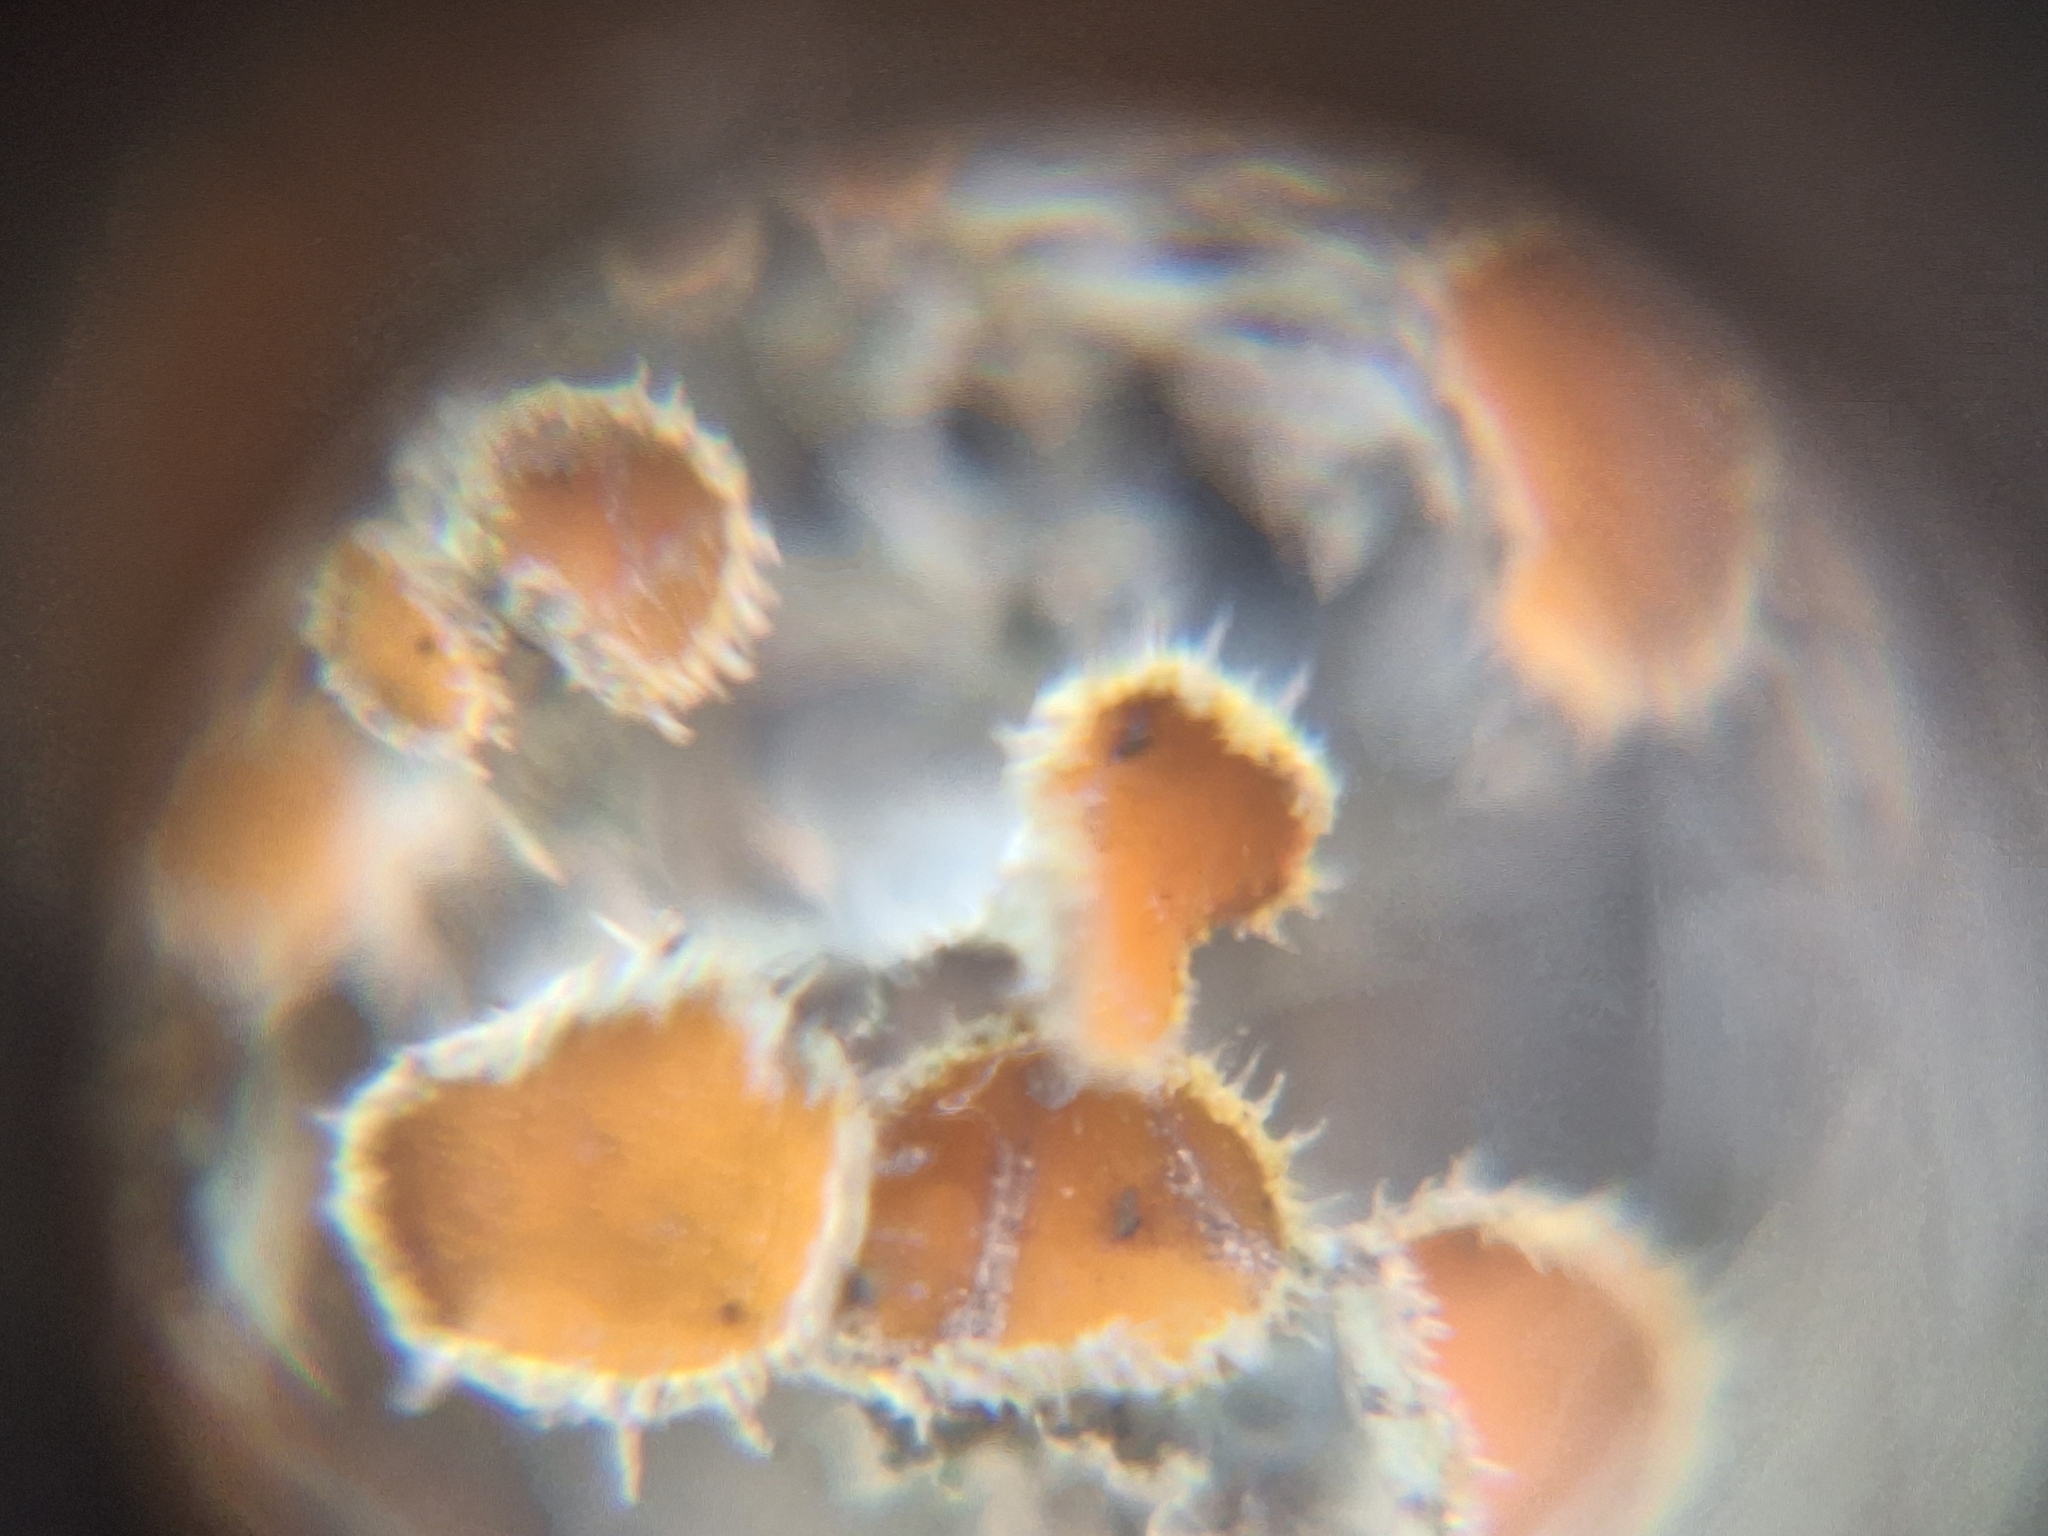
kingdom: Fungi
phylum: Ascomycota
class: Lecanoromycetes
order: Teloschistales
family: Teloschistaceae
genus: Niorma
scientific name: Niorma chrysophthalma
